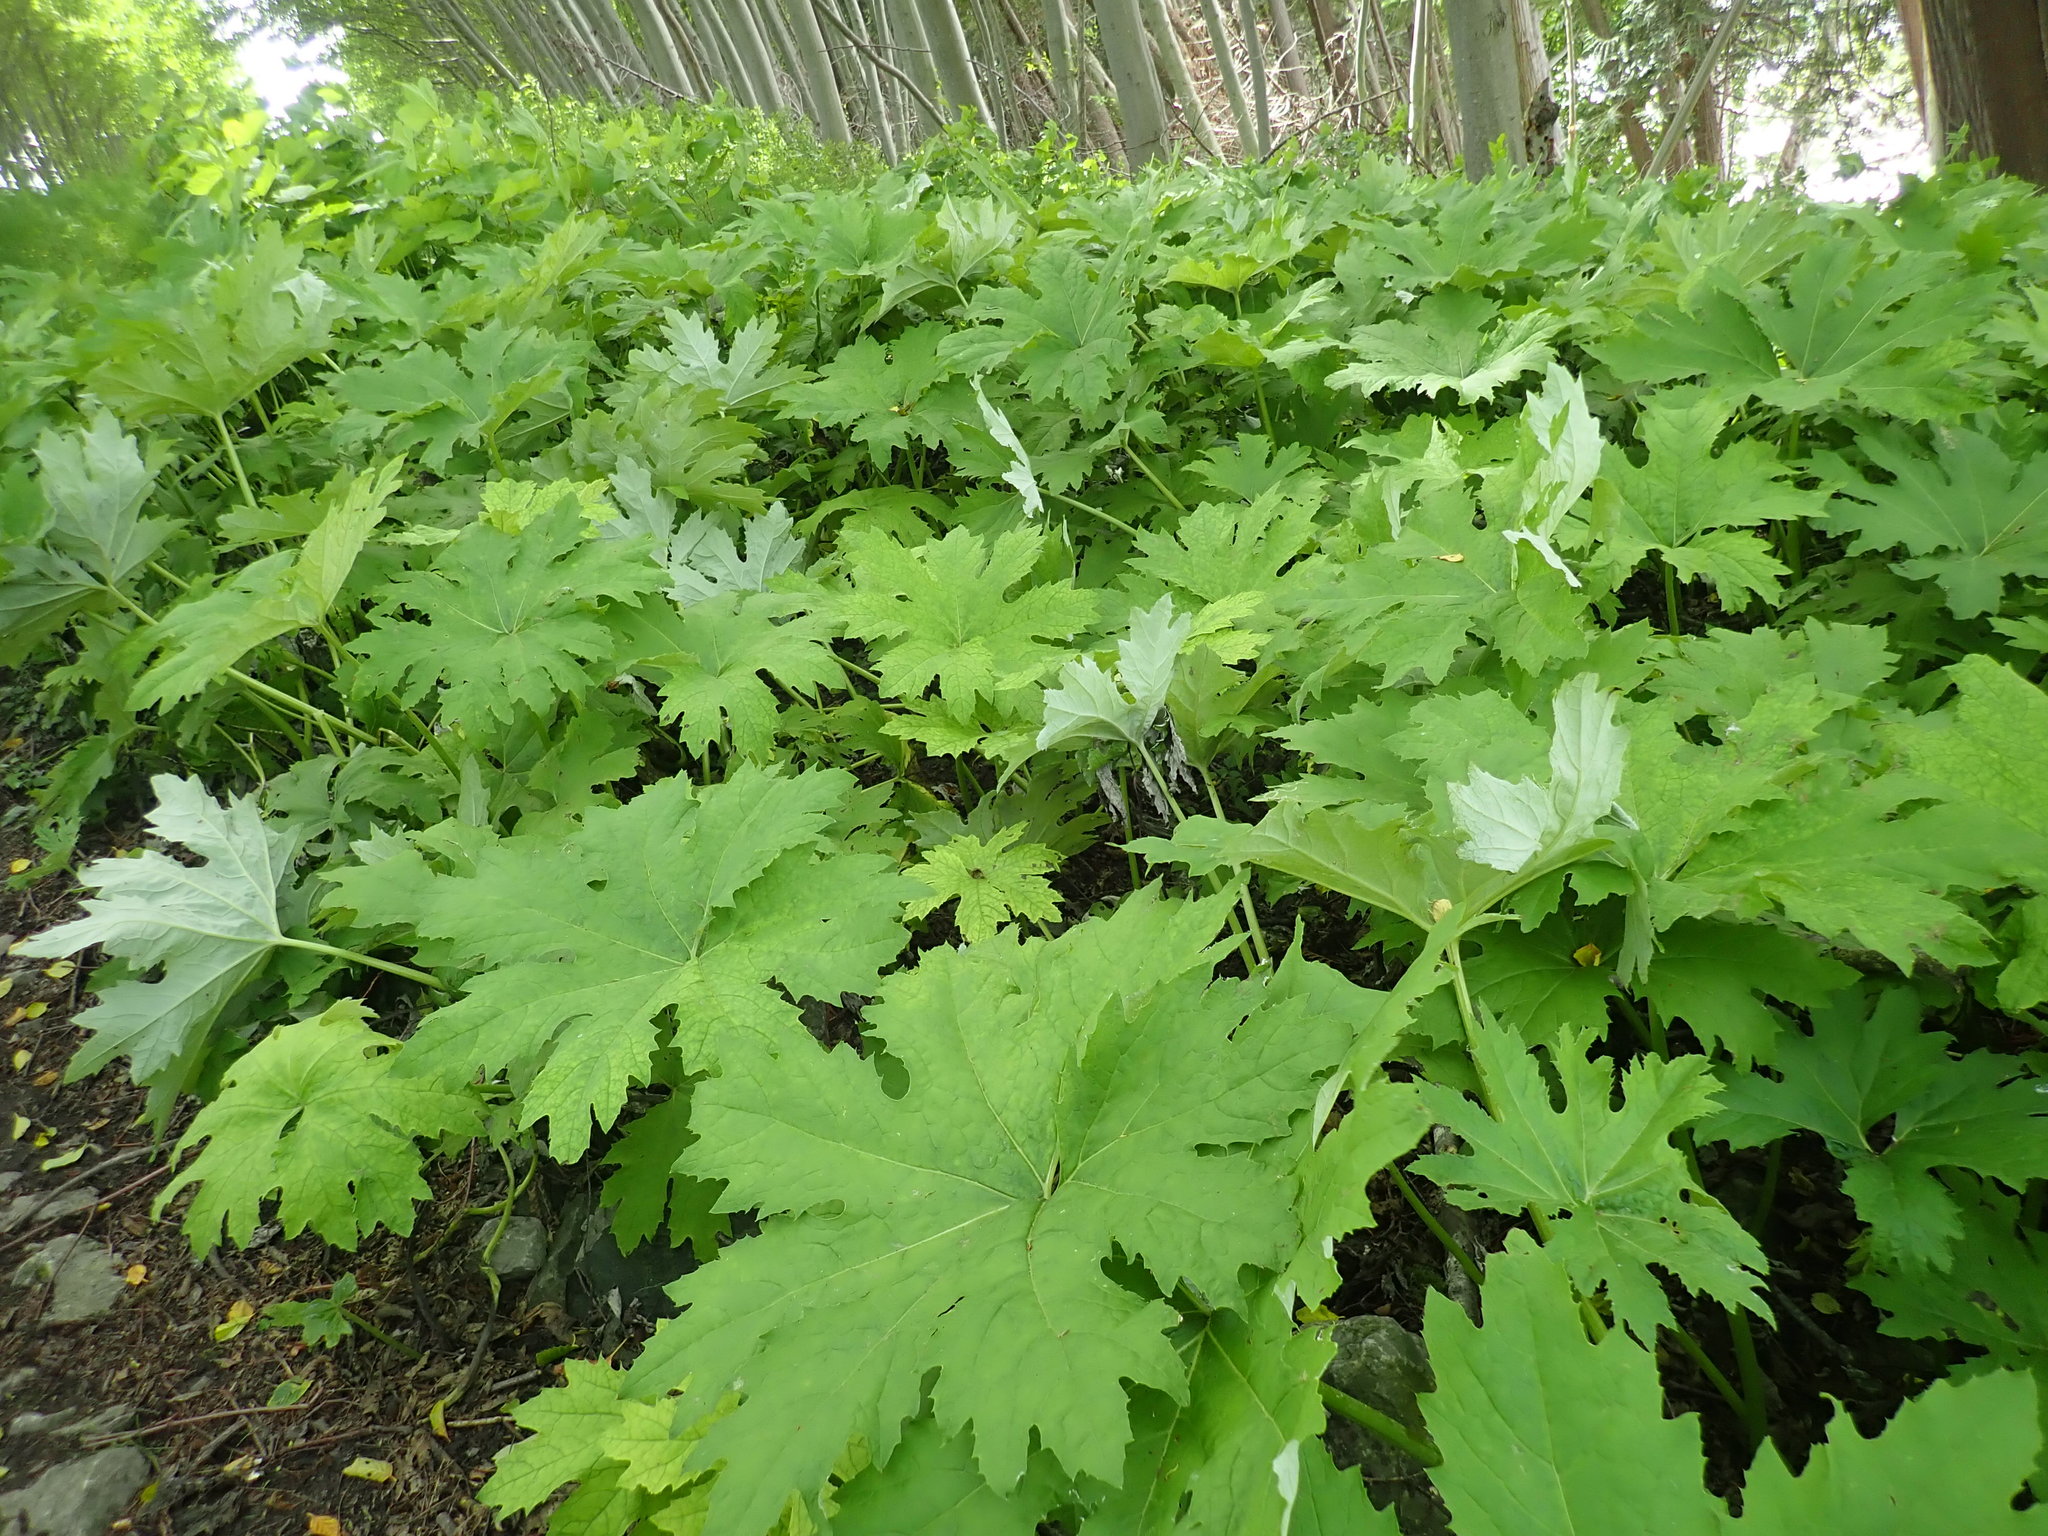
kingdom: Plantae
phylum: Tracheophyta
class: Magnoliopsida
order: Asterales
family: Asteraceae
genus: Petasites
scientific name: Petasites frigidus
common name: Arctic butterbur
